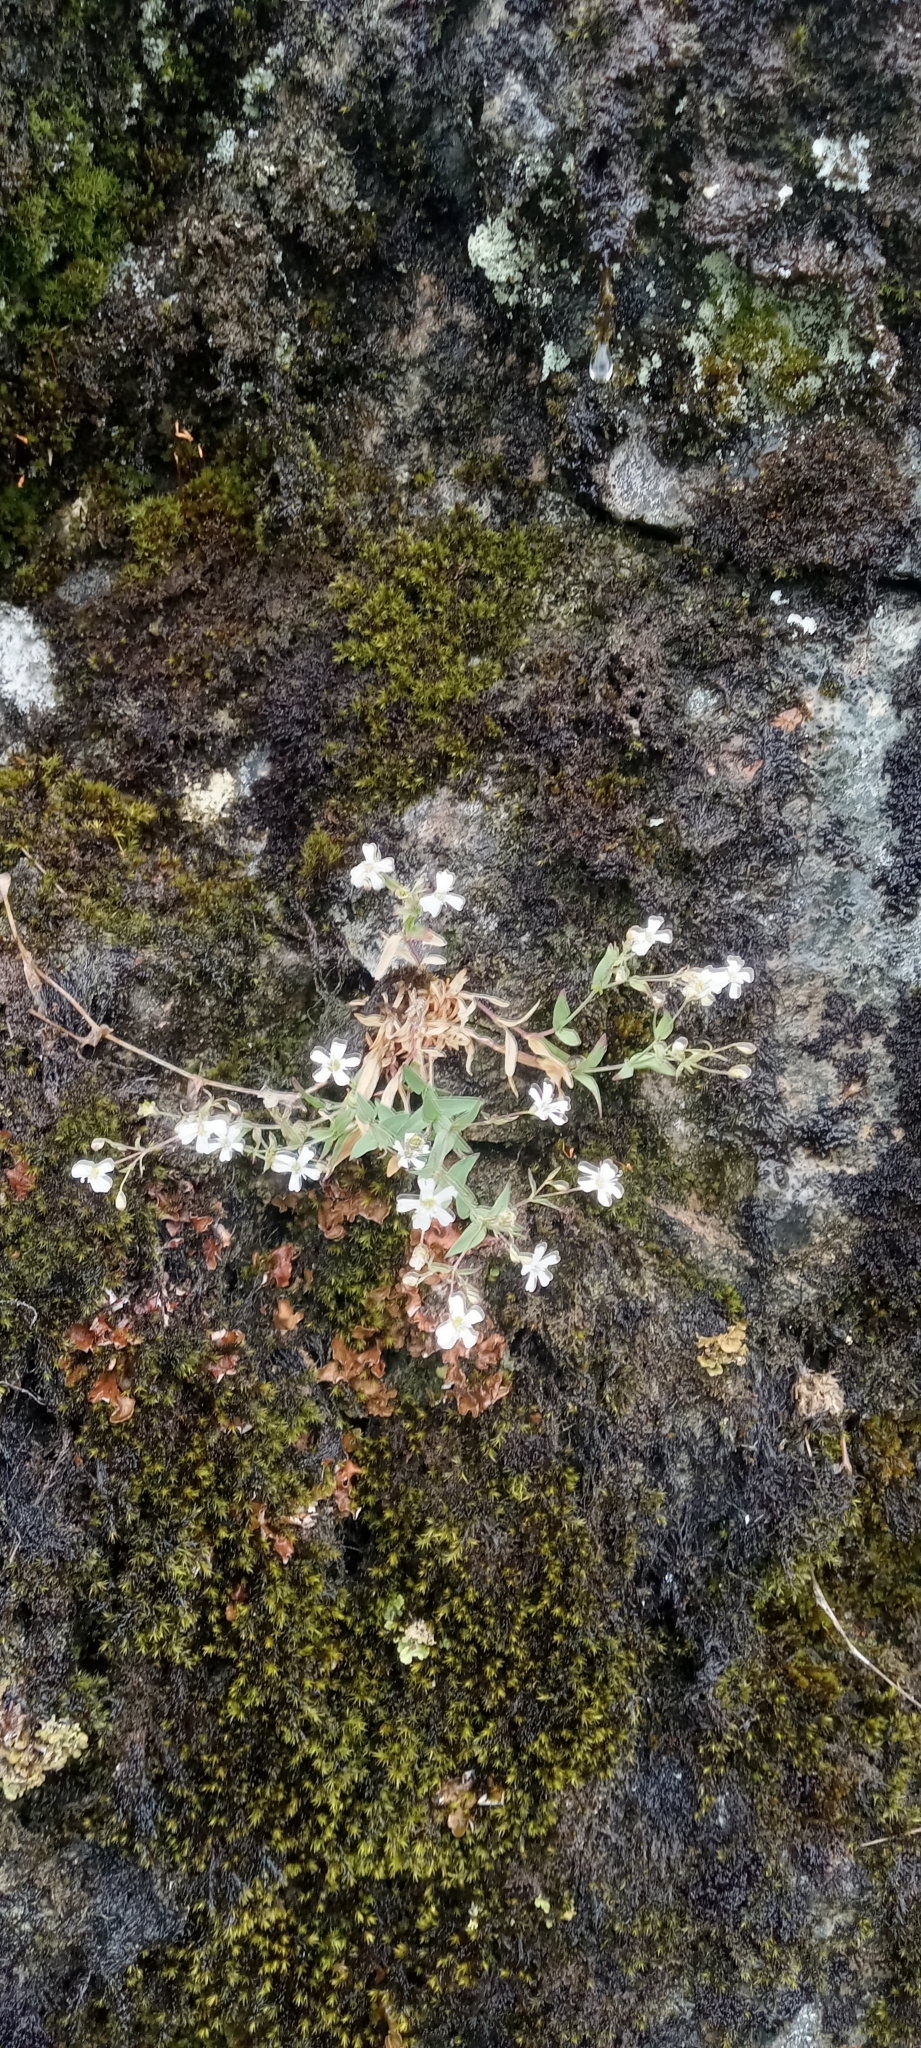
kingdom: Plantae
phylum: Tracheophyta
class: Magnoliopsida
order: Caryophyllales
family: Caryophyllaceae
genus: Atocion
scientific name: Atocion rupestre
